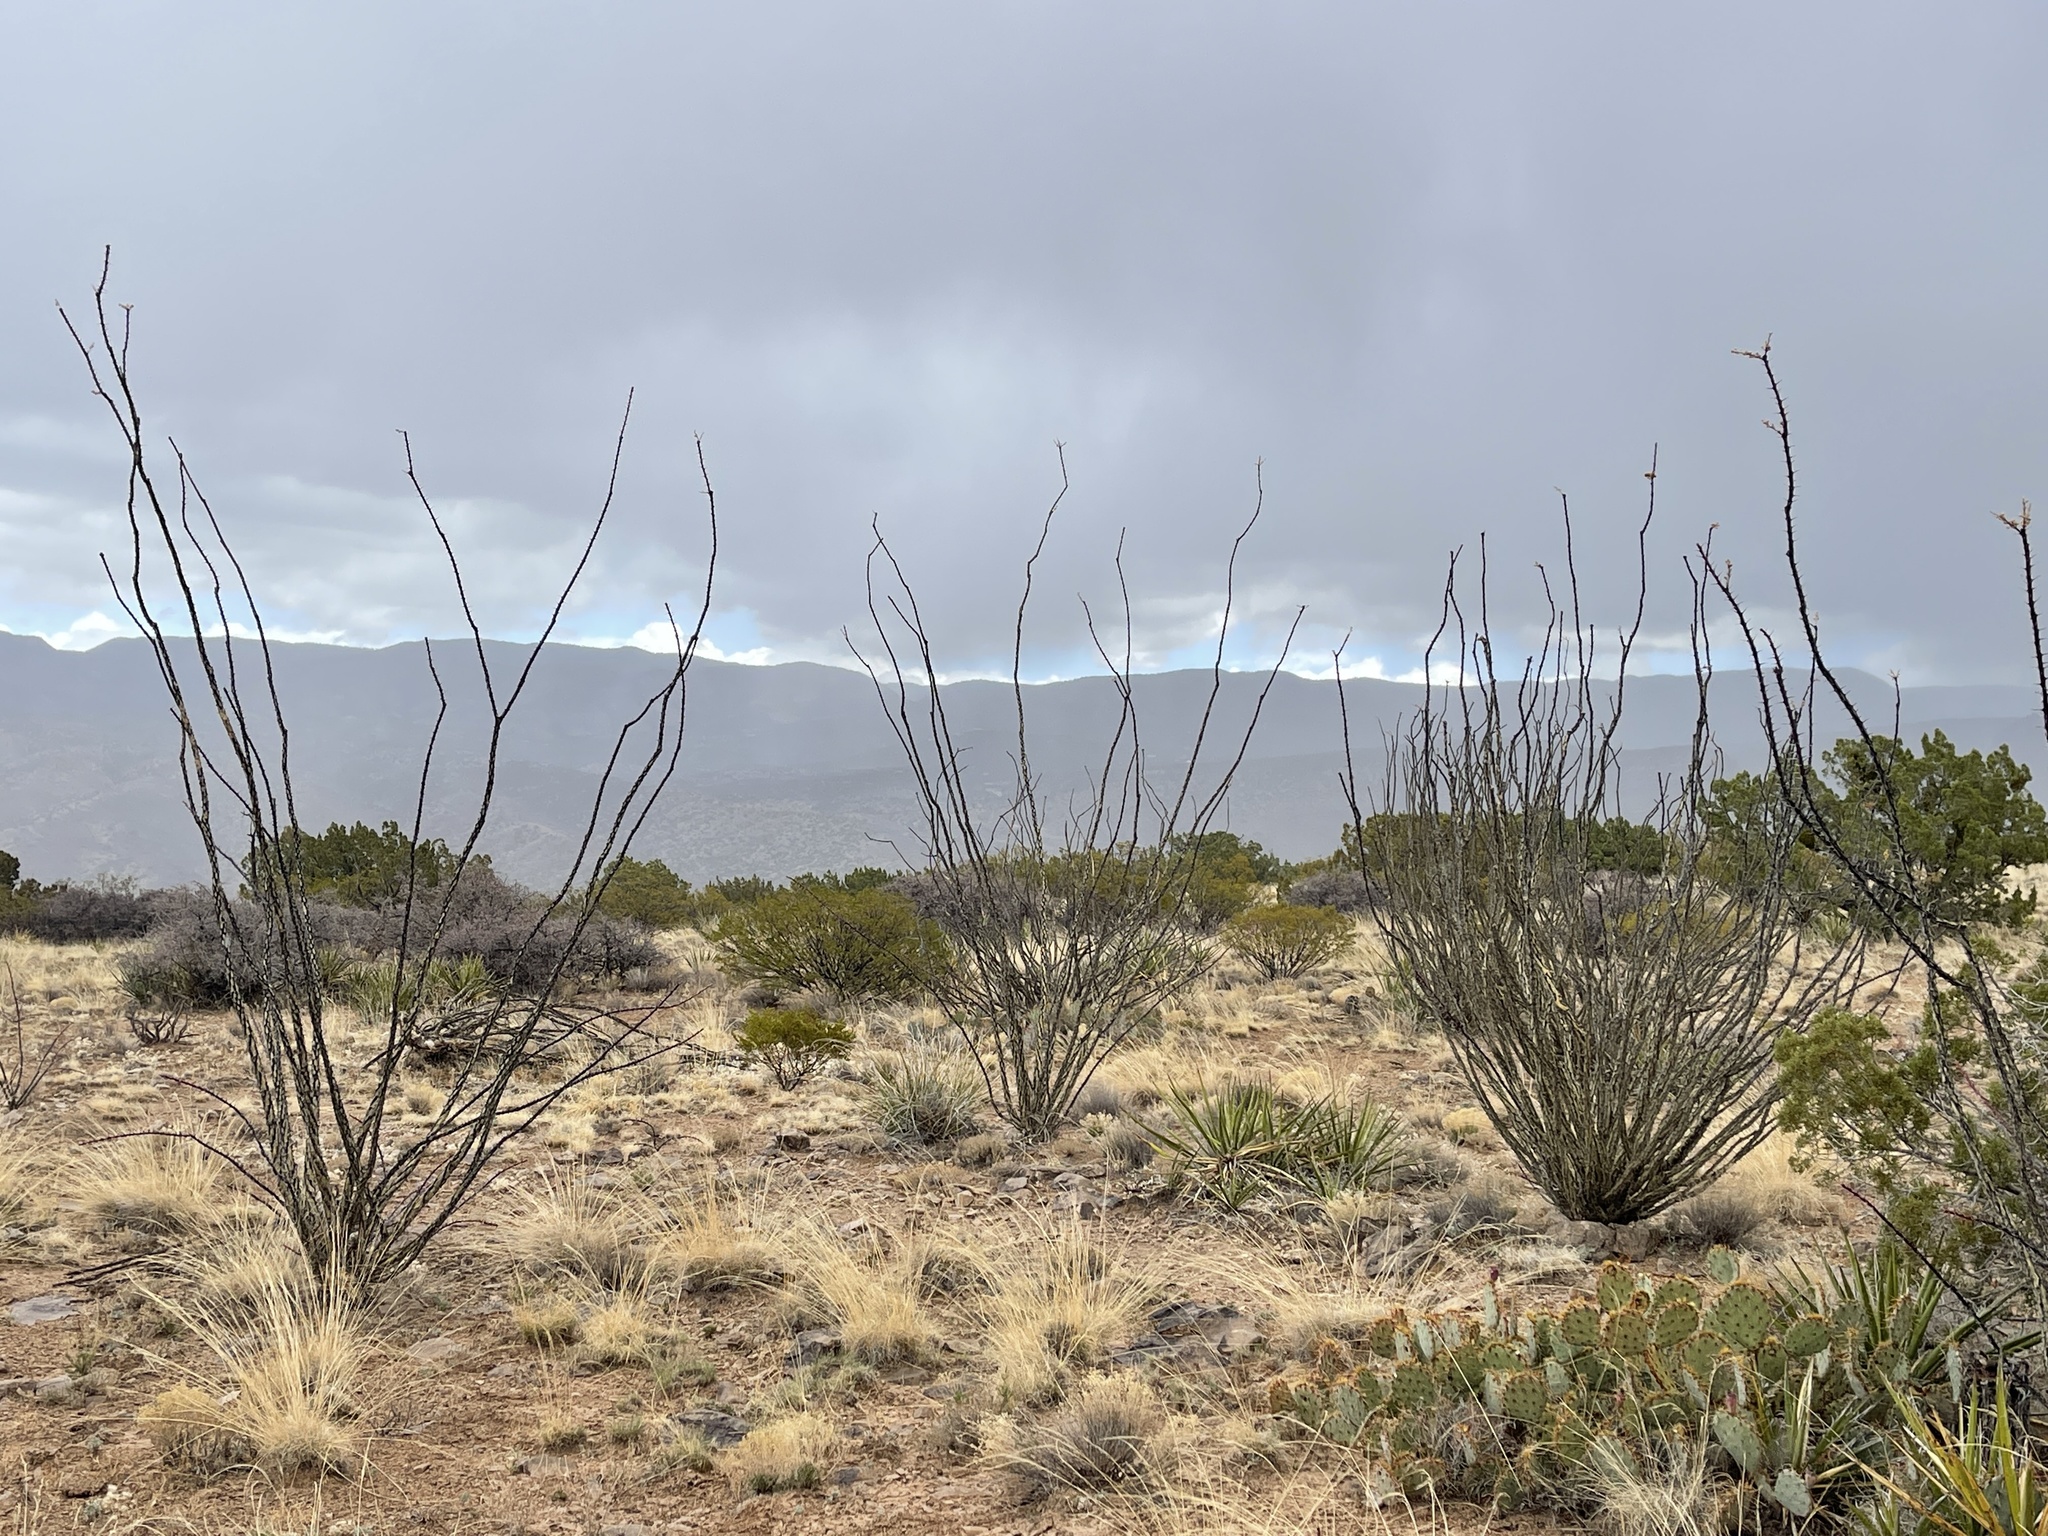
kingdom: Plantae
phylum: Tracheophyta
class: Magnoliopsida
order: Ericales
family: Fouquieriaceae
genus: Fouquieria
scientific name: Fouquieria splendens
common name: Vine-cactus
